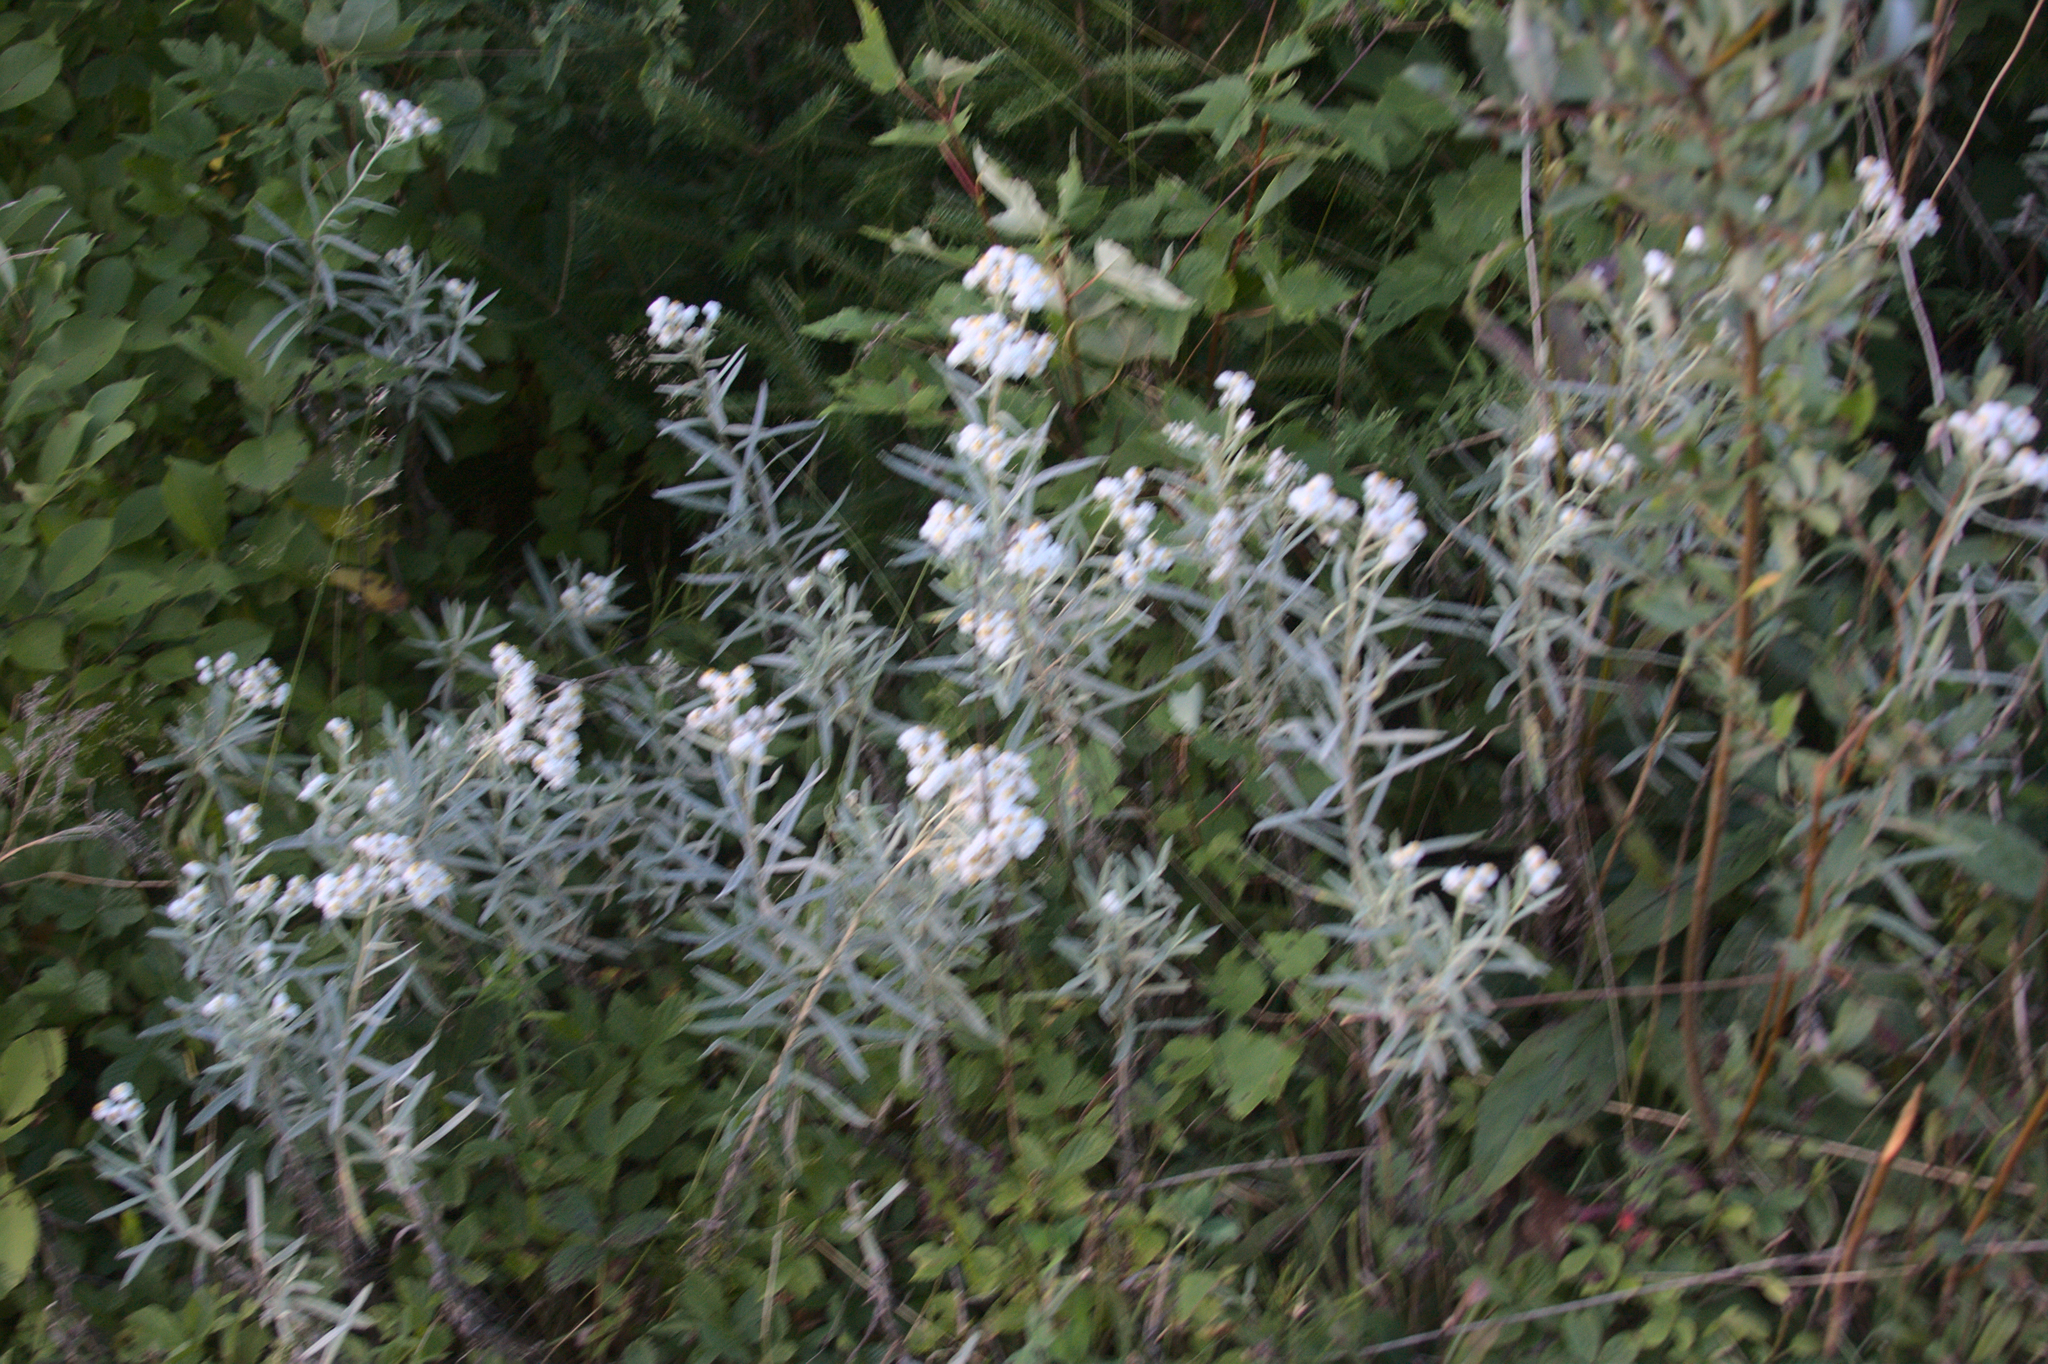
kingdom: Plantae
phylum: Tracheophyta
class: Magnoliopsida
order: Asterales
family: Asteraceae
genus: Anaphalis
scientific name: Anaphalis margaritacea
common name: Pearly everlasting
